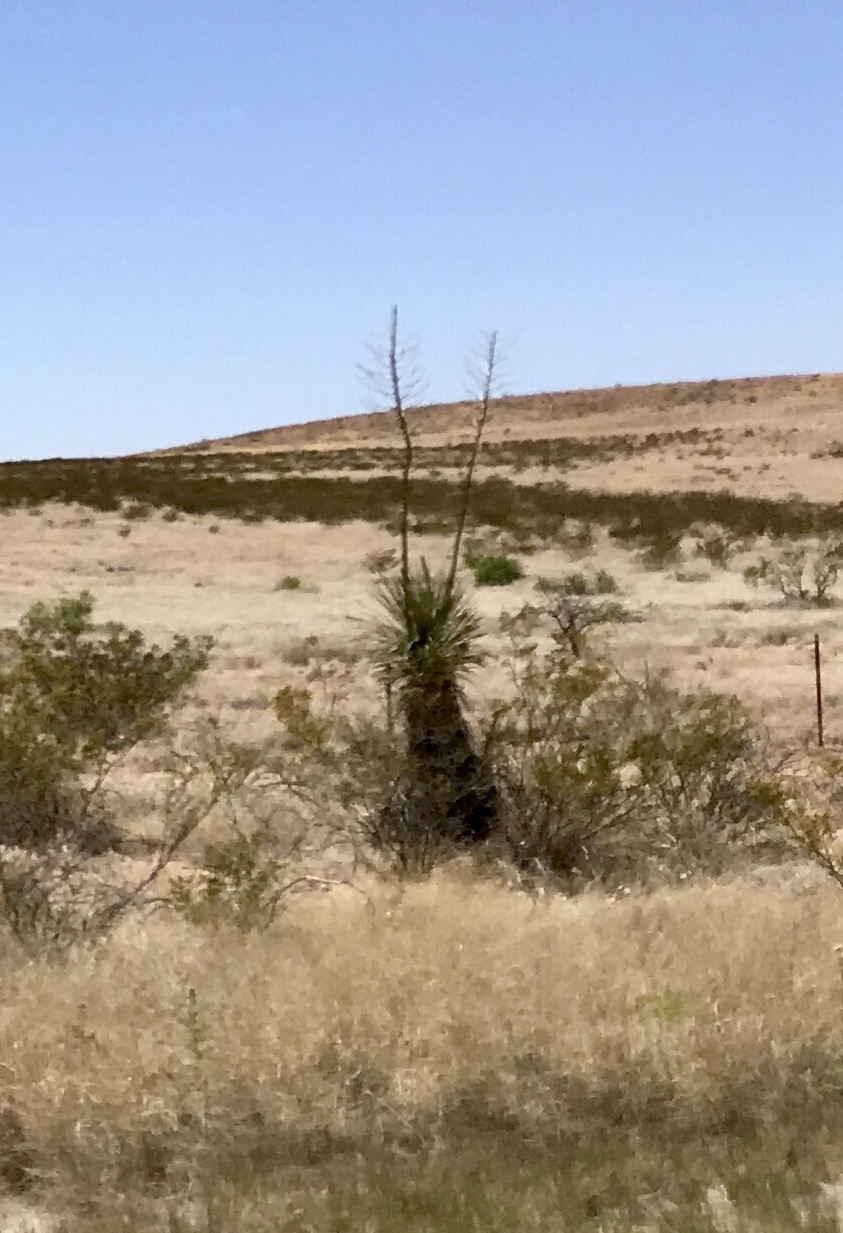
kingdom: Plantae
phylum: Tracheophyta
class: Liliopsida
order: Asparagales
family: Asparagaceae
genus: Yucca
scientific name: Yucca elata
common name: Palmella
